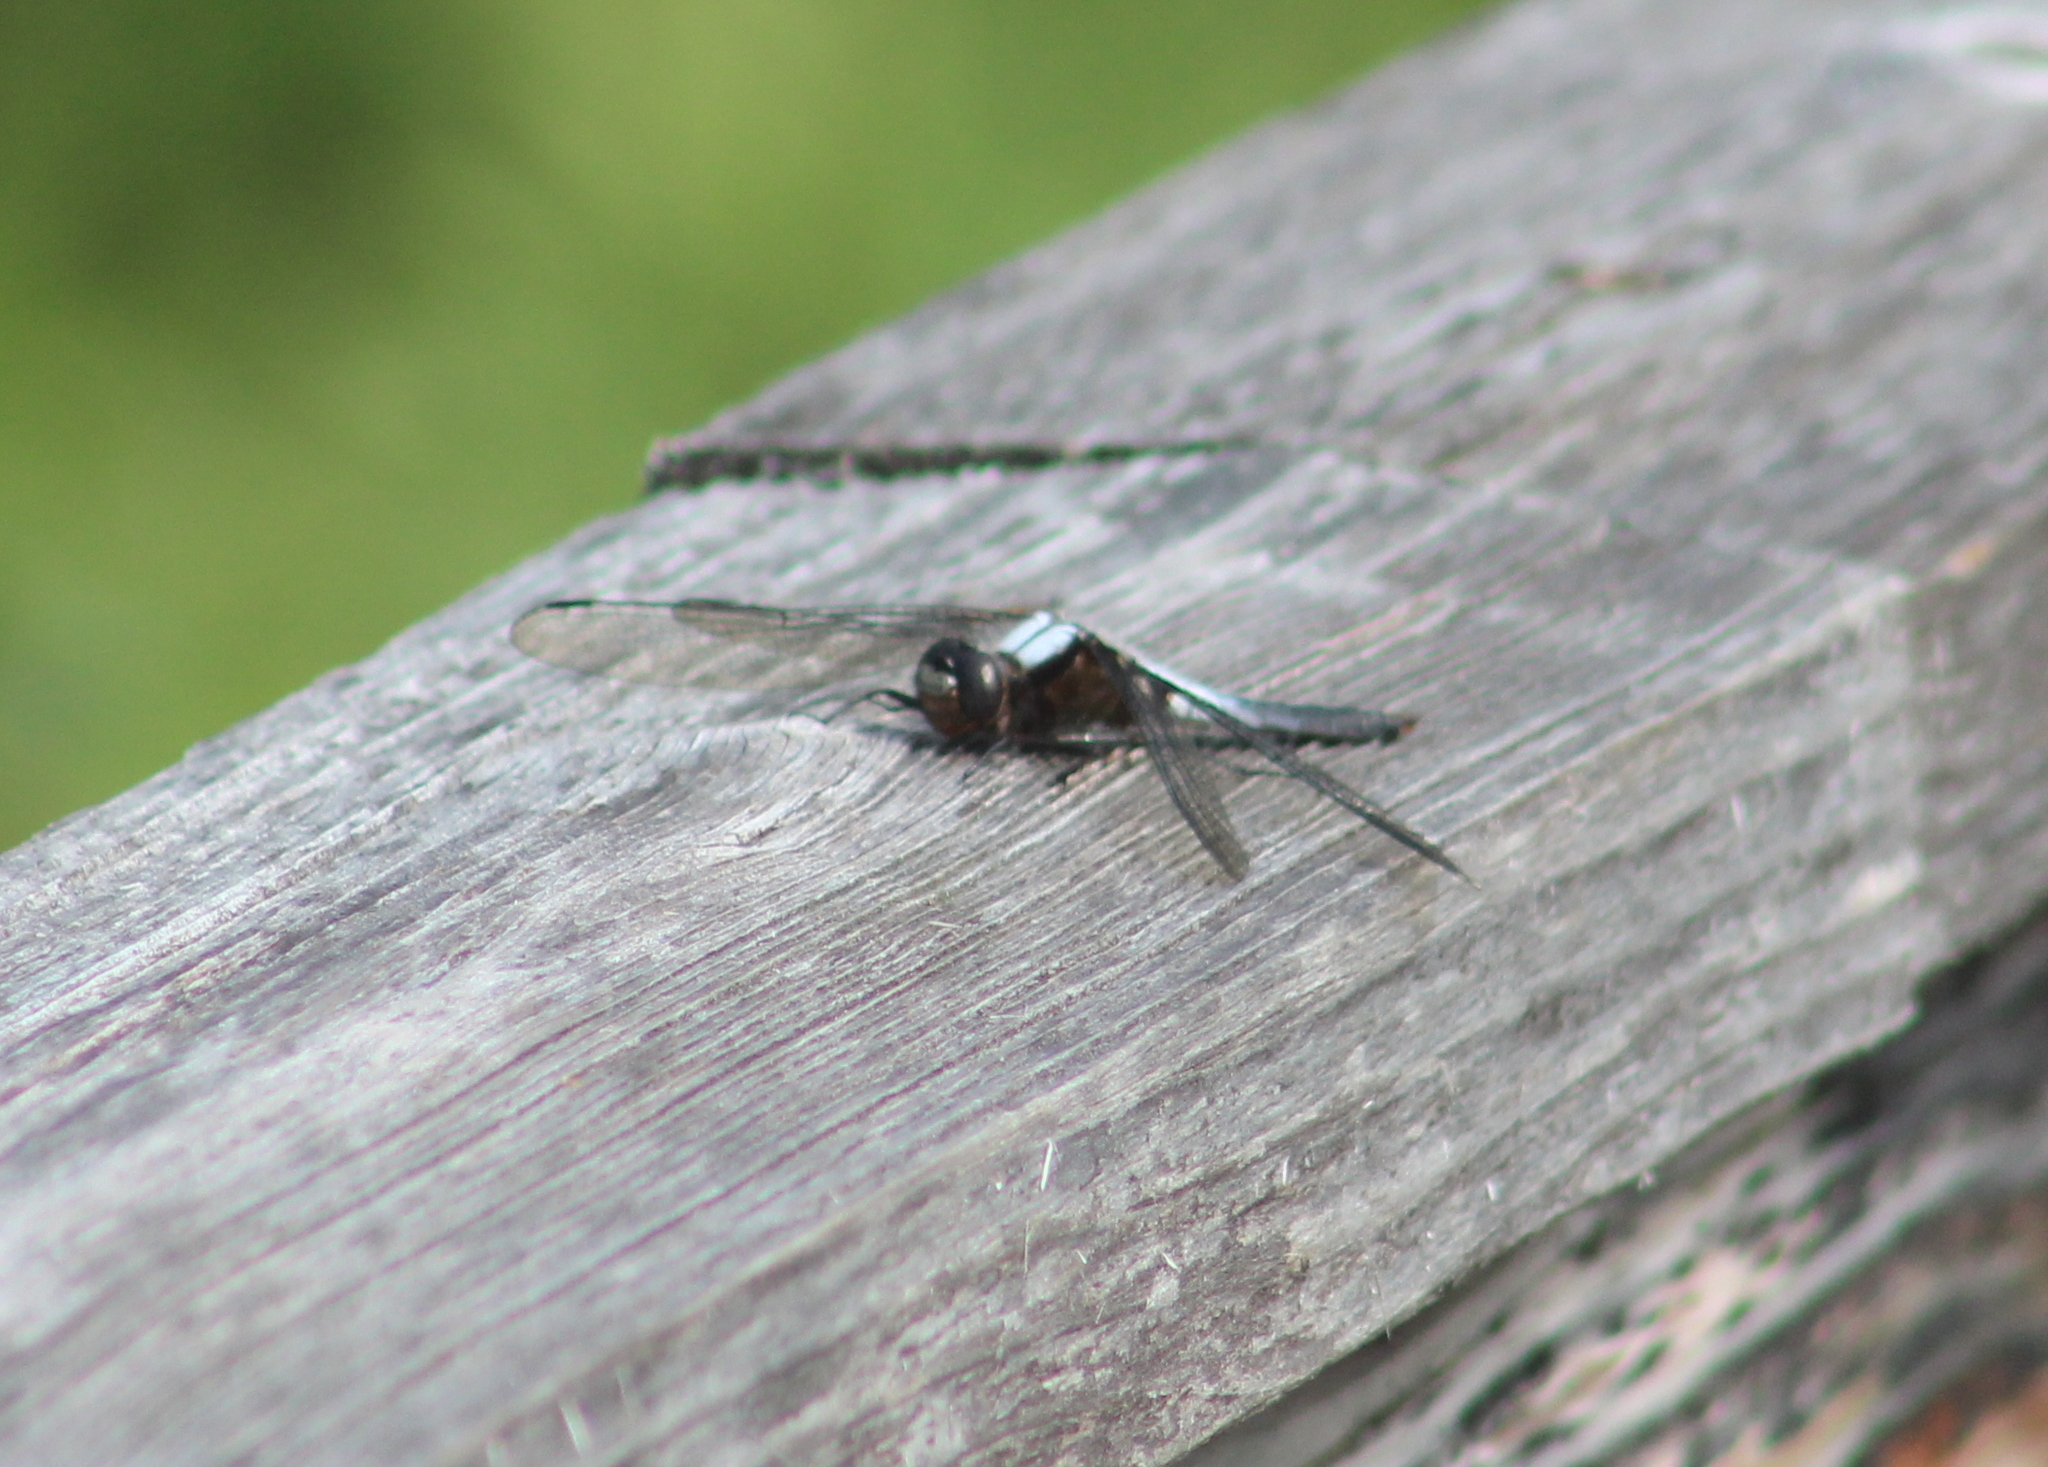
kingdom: Animalia
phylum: Arthropoda
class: Insecta
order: Odonata
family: Libellulidae
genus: Ladona
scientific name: Ladona julia
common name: Chalk-fronted corporal
